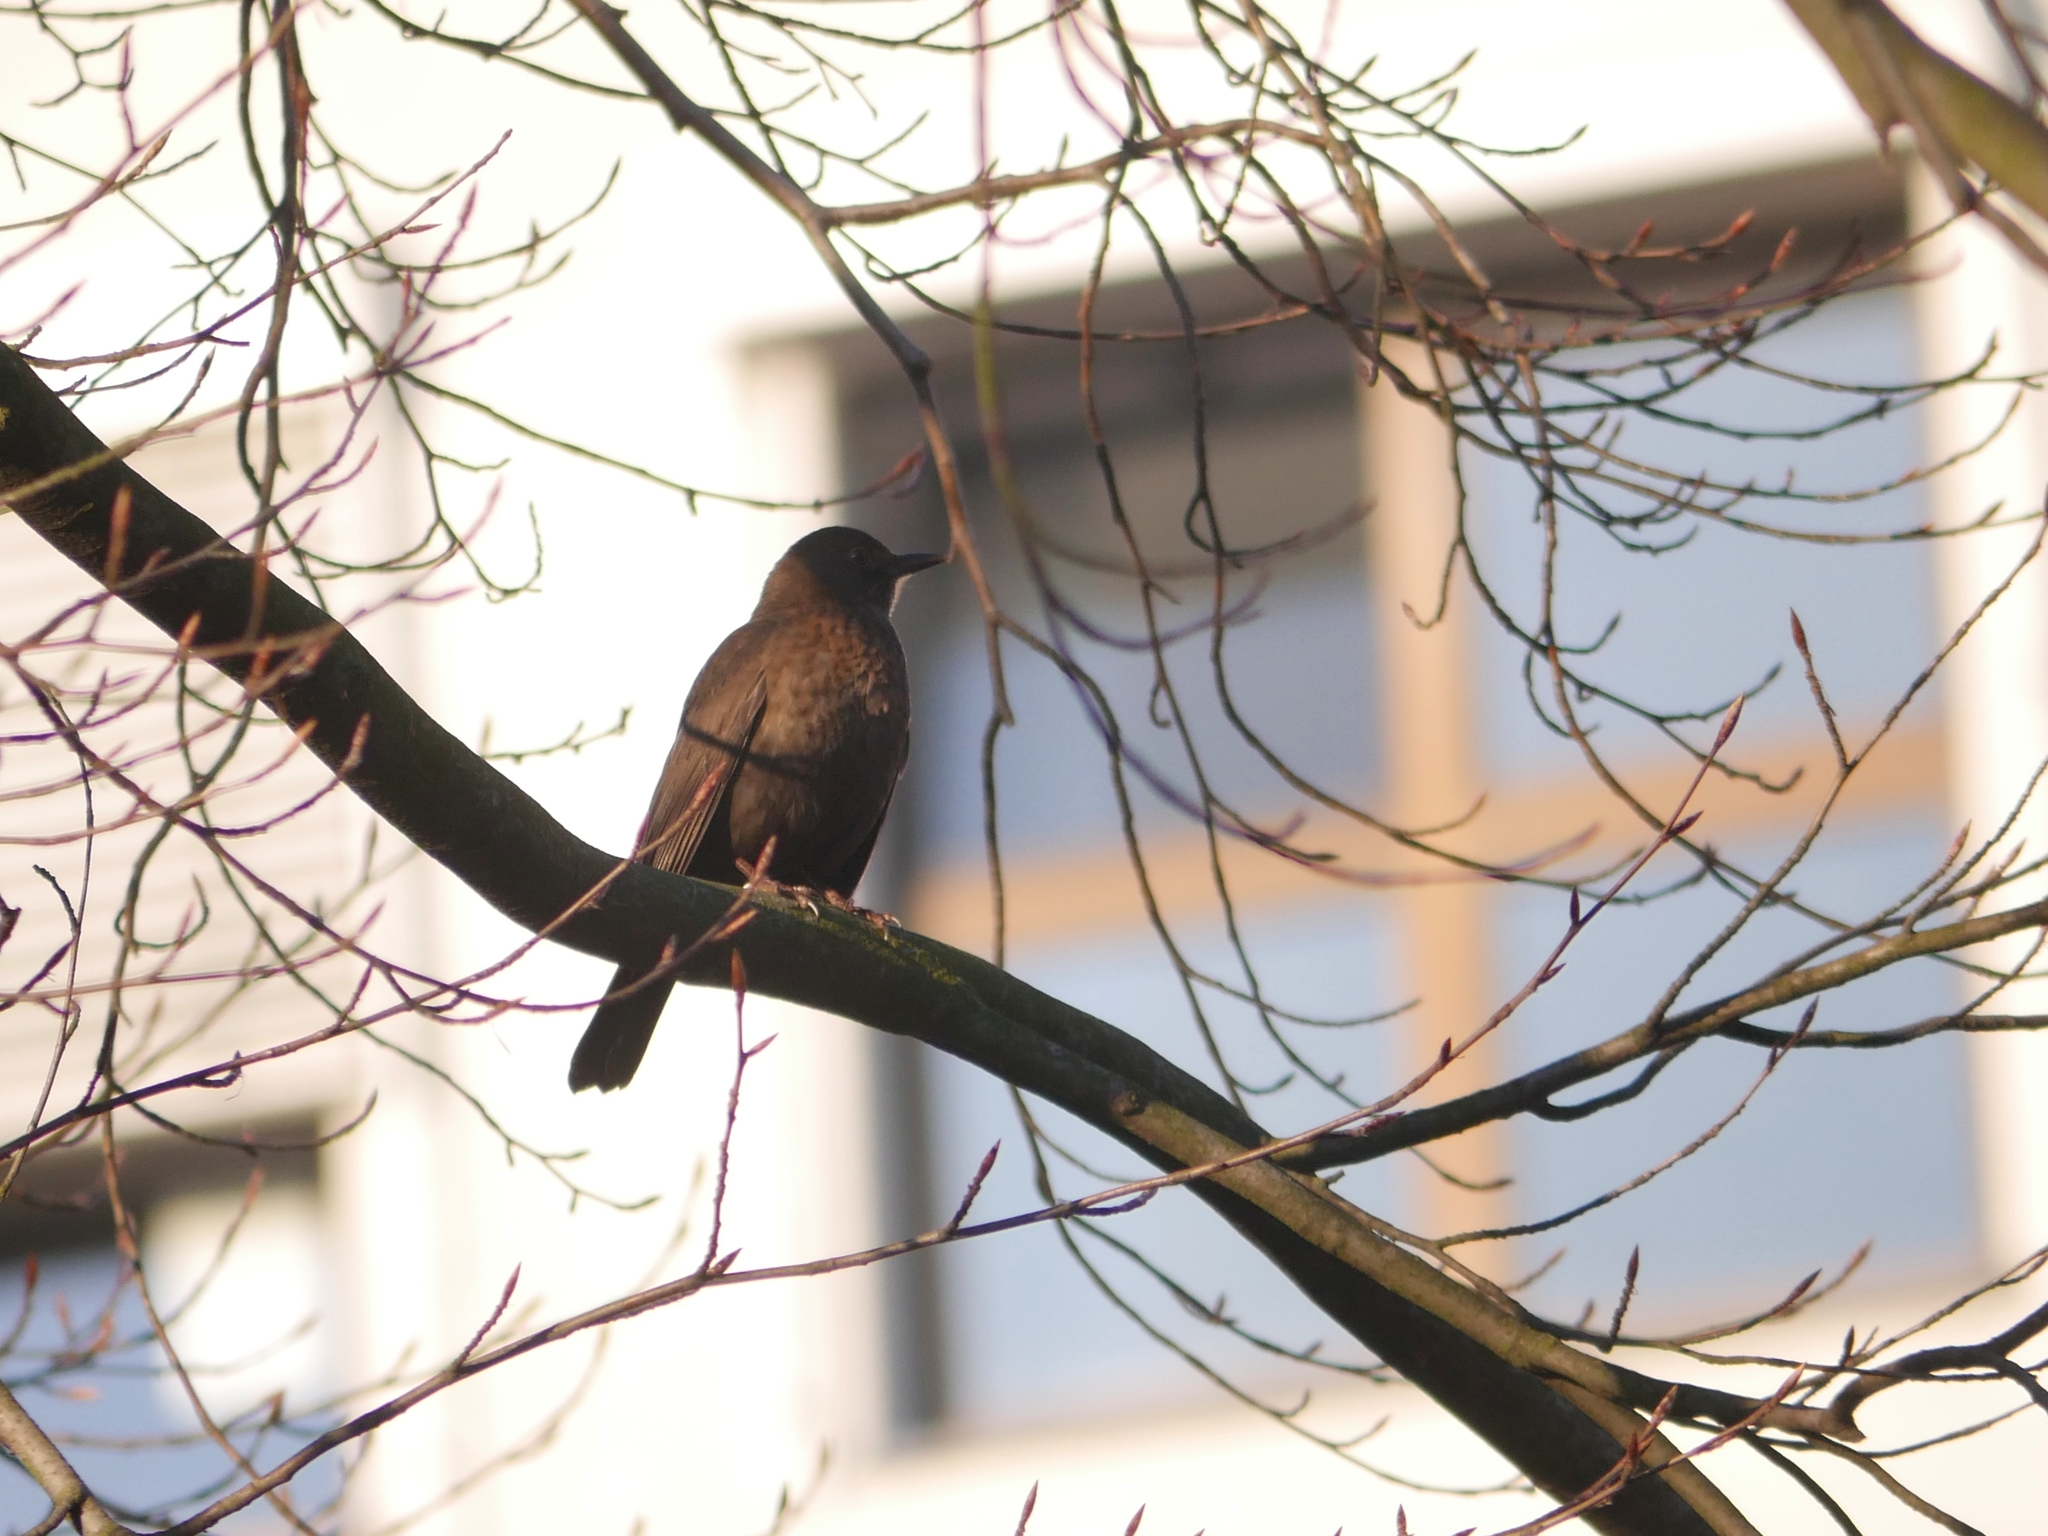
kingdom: Animalia
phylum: Chordata
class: Aves
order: Passeriformes
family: Turdidae
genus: Turdus
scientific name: Turdus merula
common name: Common blackbird
